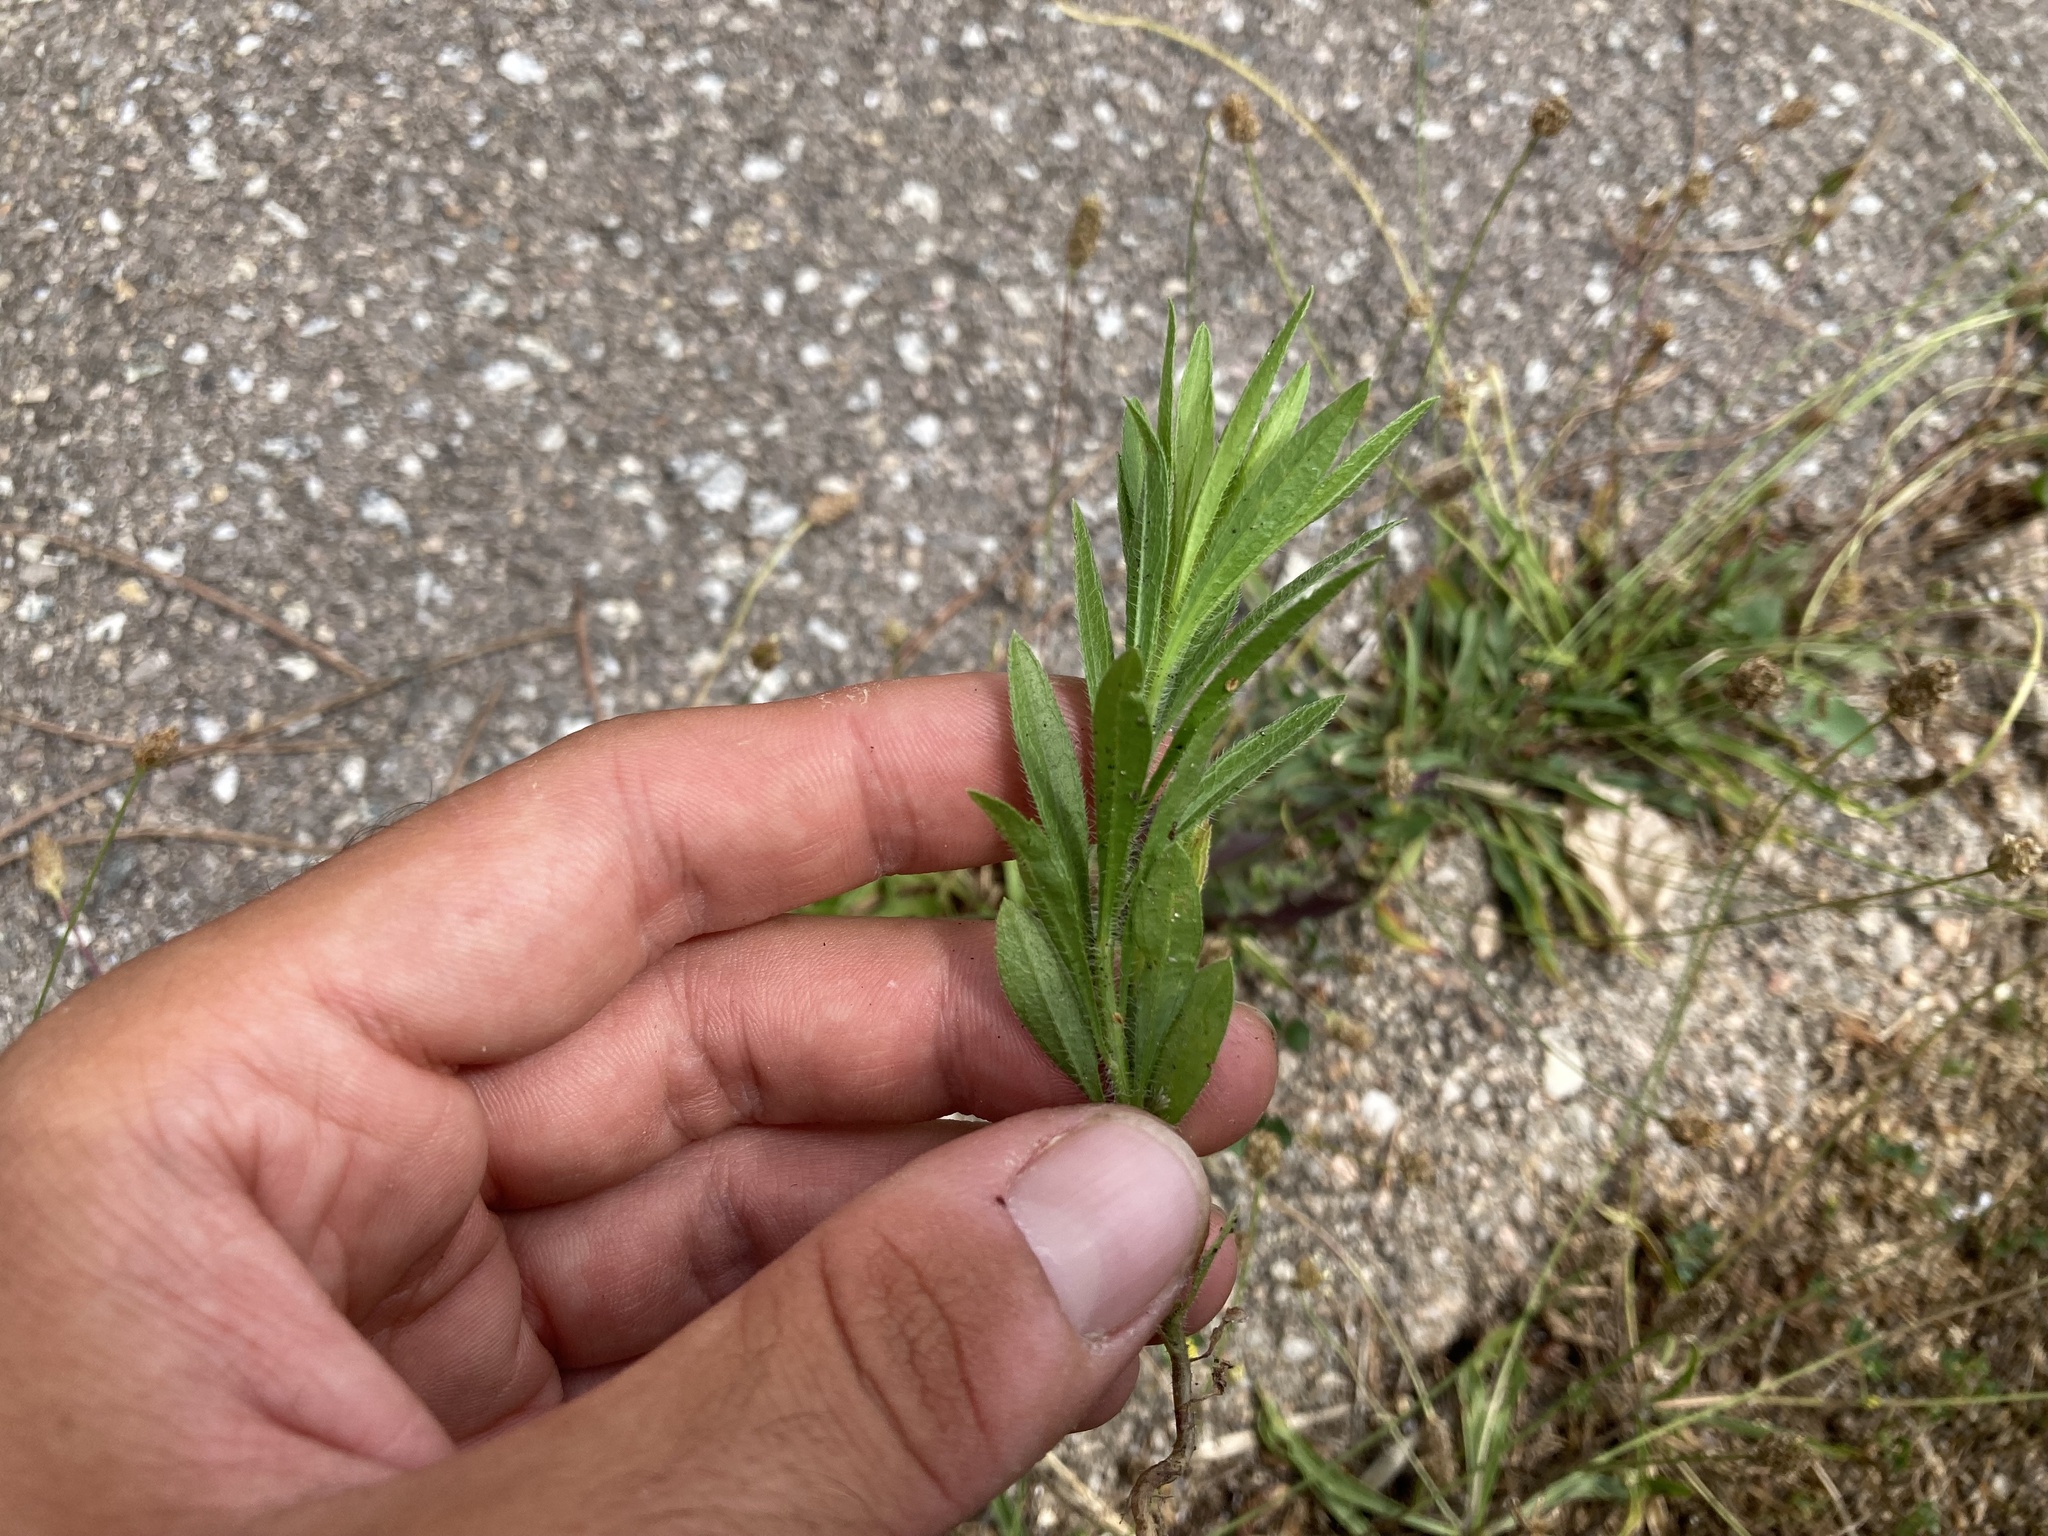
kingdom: Plantae
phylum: Tracheophyta
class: Magnoliopsida
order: Asterales
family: Asteraceae
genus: Erigeron
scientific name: Erigeron canadensis
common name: Canadian fleabane
